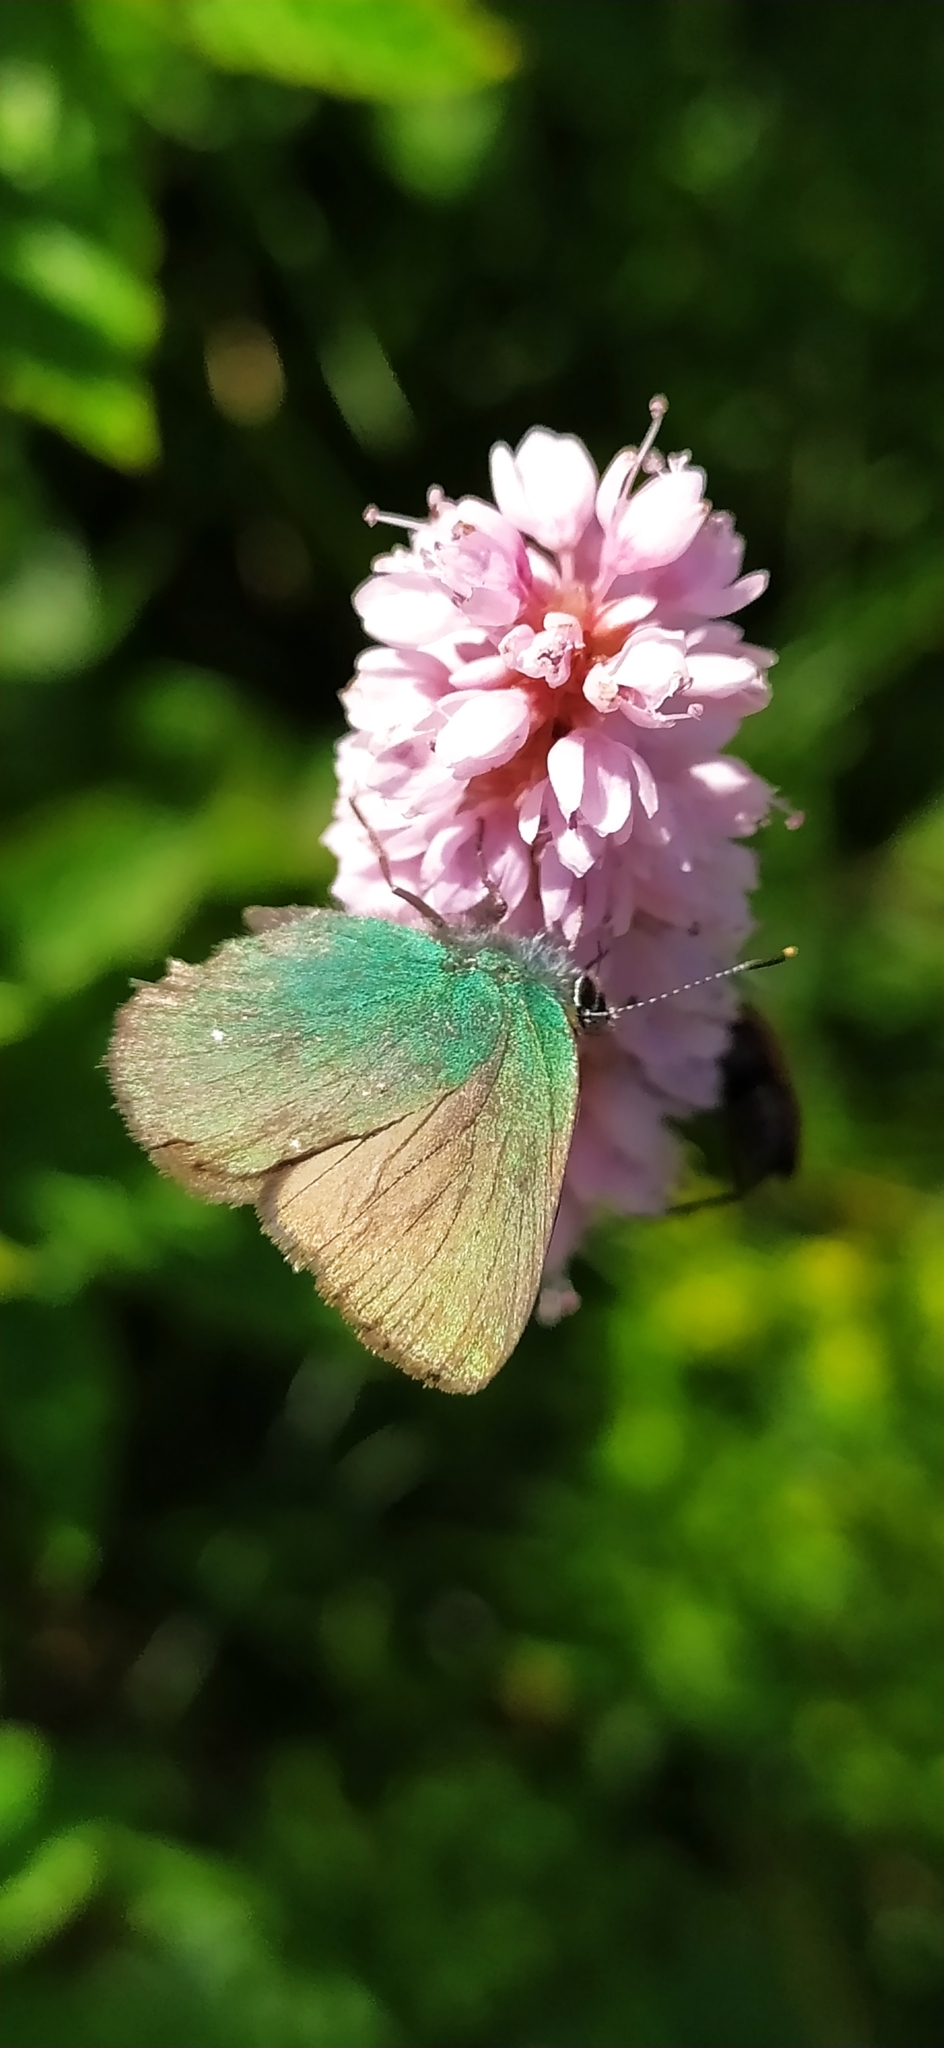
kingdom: Animalia
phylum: Arthropoda
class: Insecta
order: Lepidoptera
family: Lycaenidae
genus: Callophrys
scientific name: Callophrys rubi
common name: Green hairstreak
